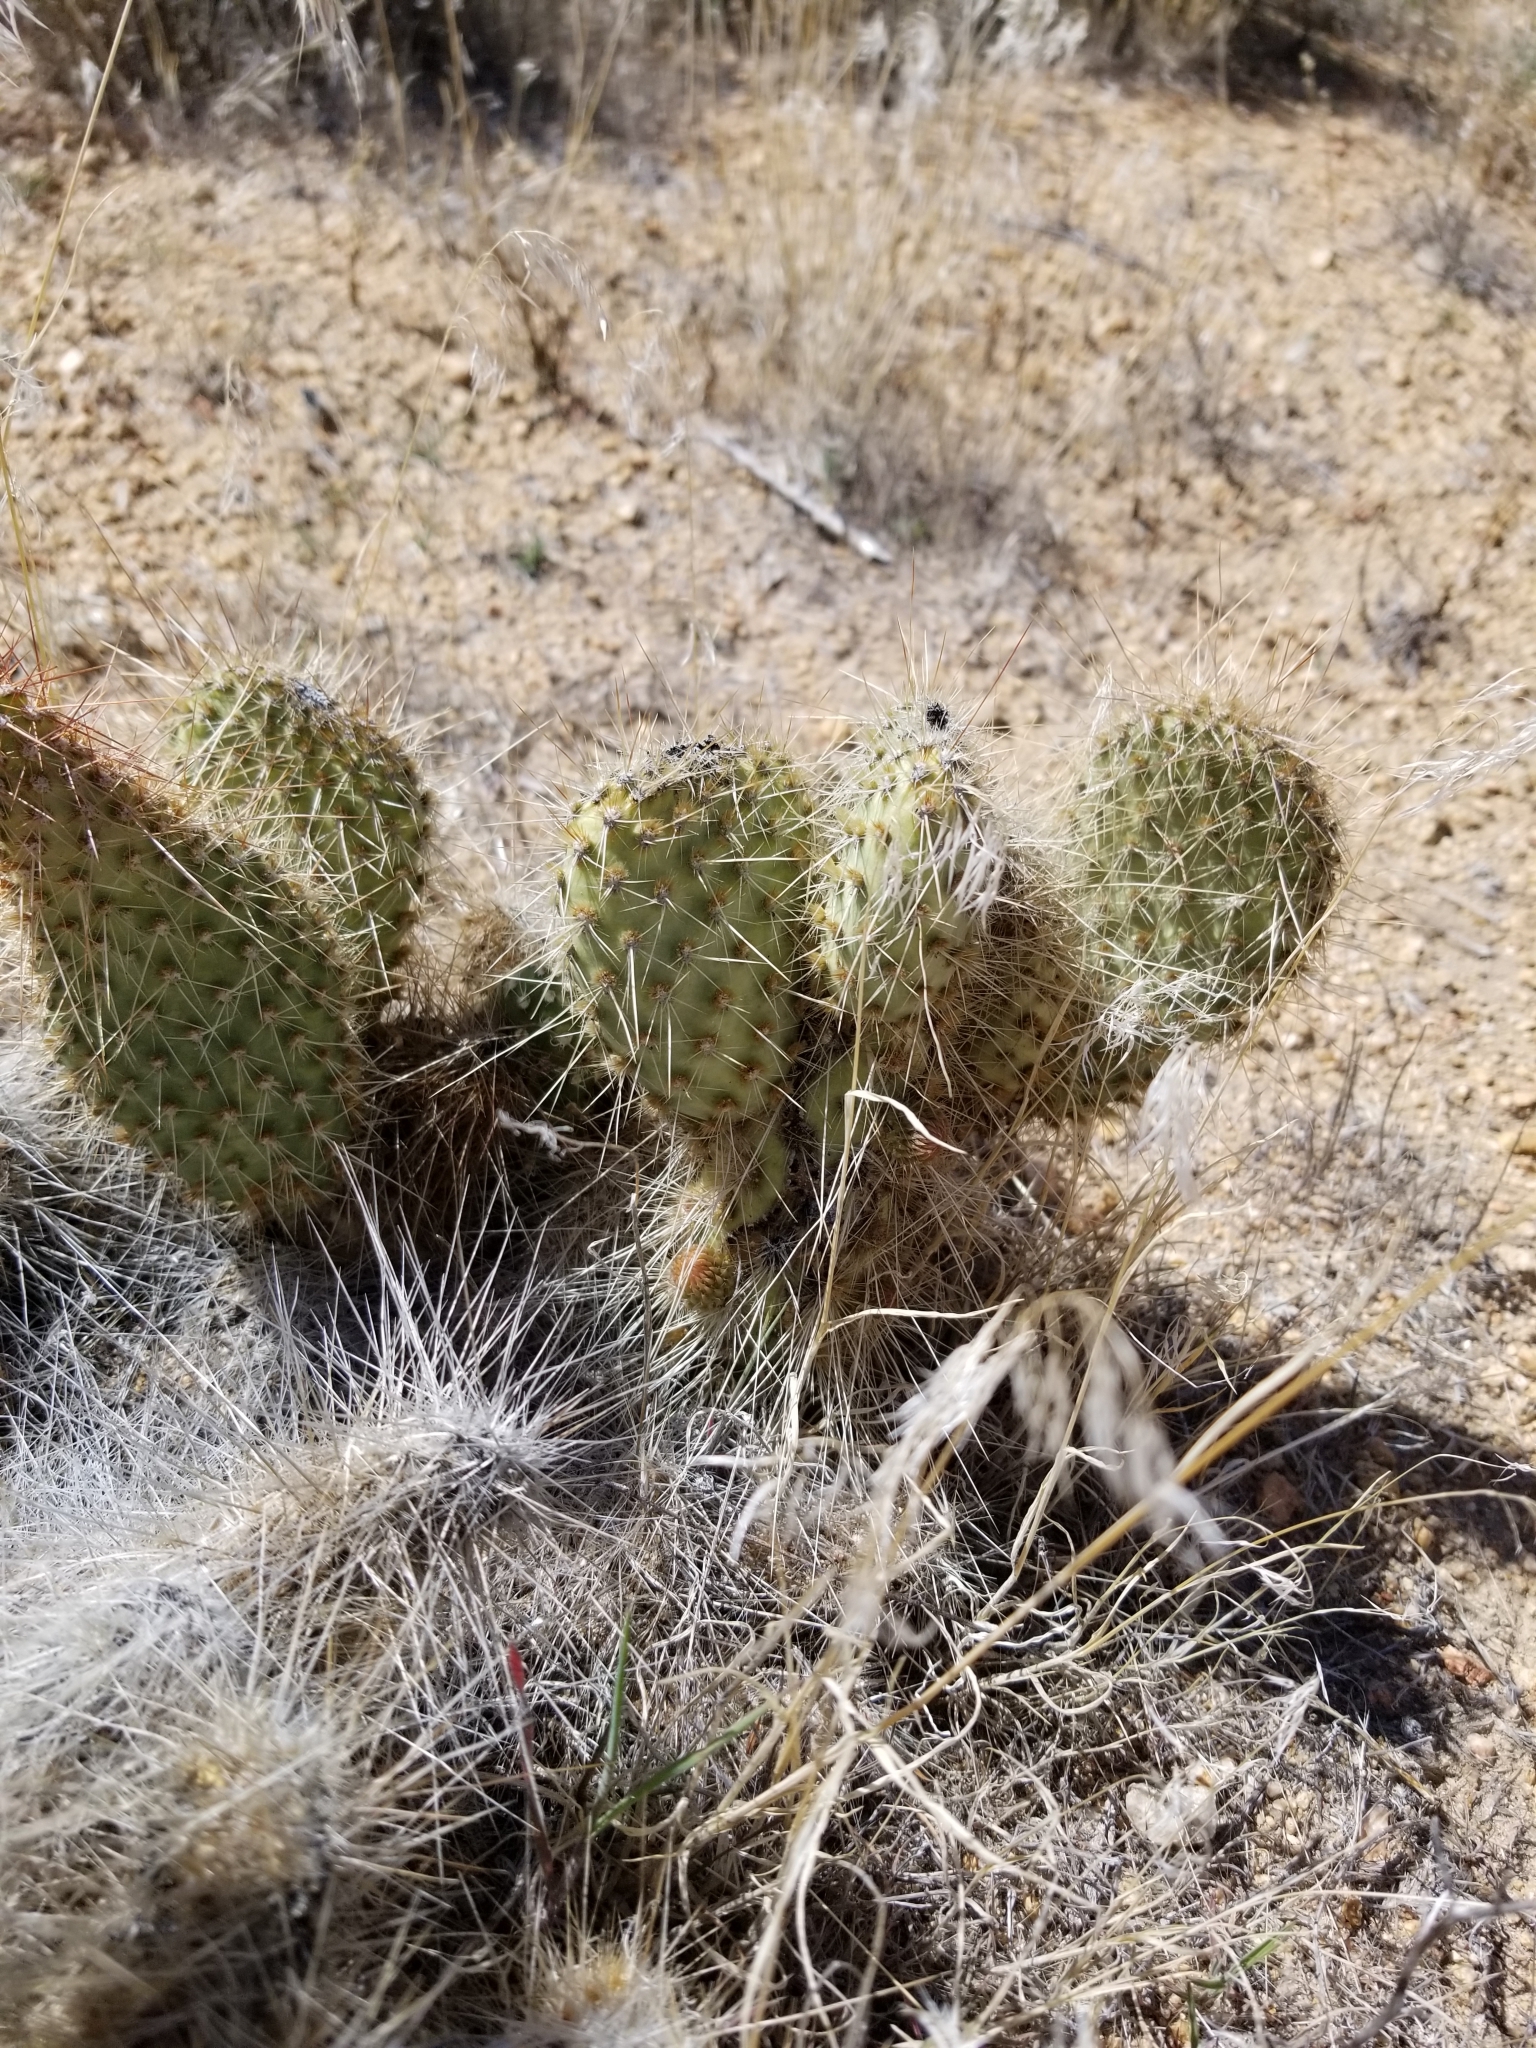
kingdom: Plantae
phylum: Tracheophyta
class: Magnoliopsida
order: Caryophyllales
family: Cactaceae
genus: Opuntia
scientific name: Opuntia polyacantha
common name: Plains prickly-pear
